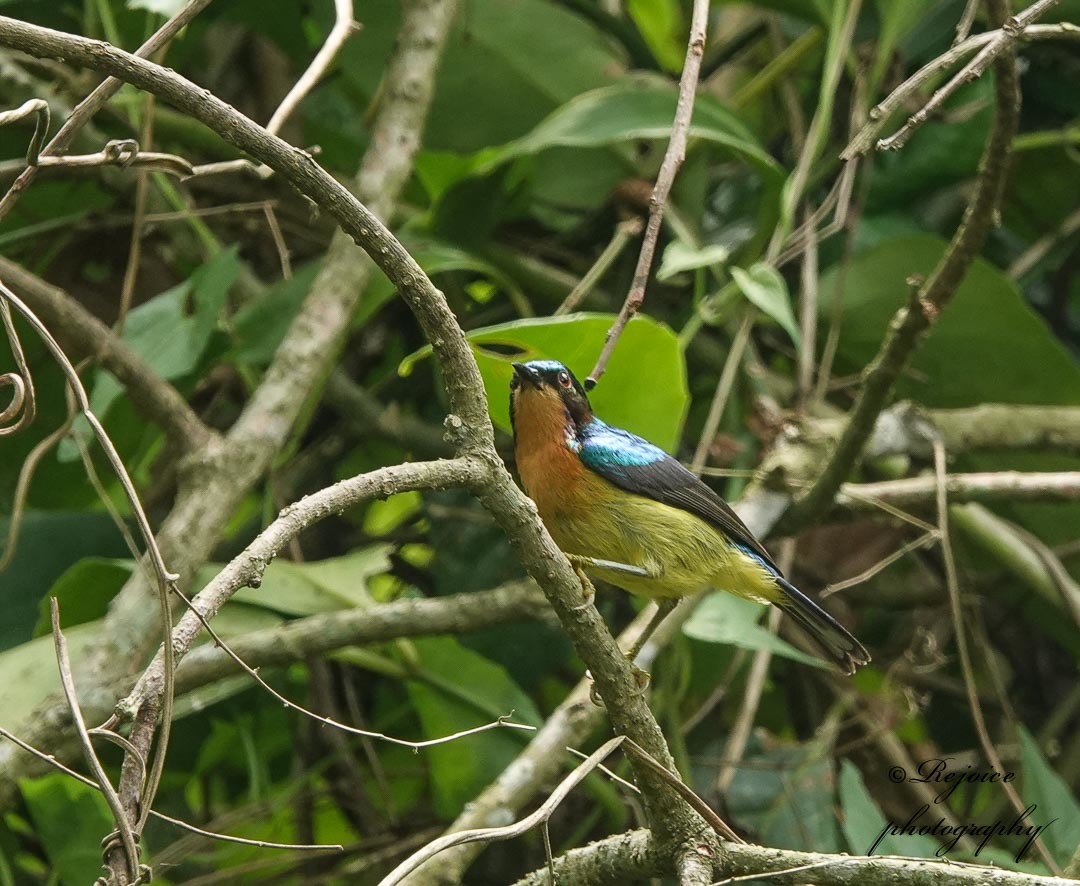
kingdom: Animalia
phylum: Chordata
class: Aves
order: Passeriformes
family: Nectariniidae
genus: Chalcoparia
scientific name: Chalcoparia singalensis
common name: Ruby-cheeked sunbird
